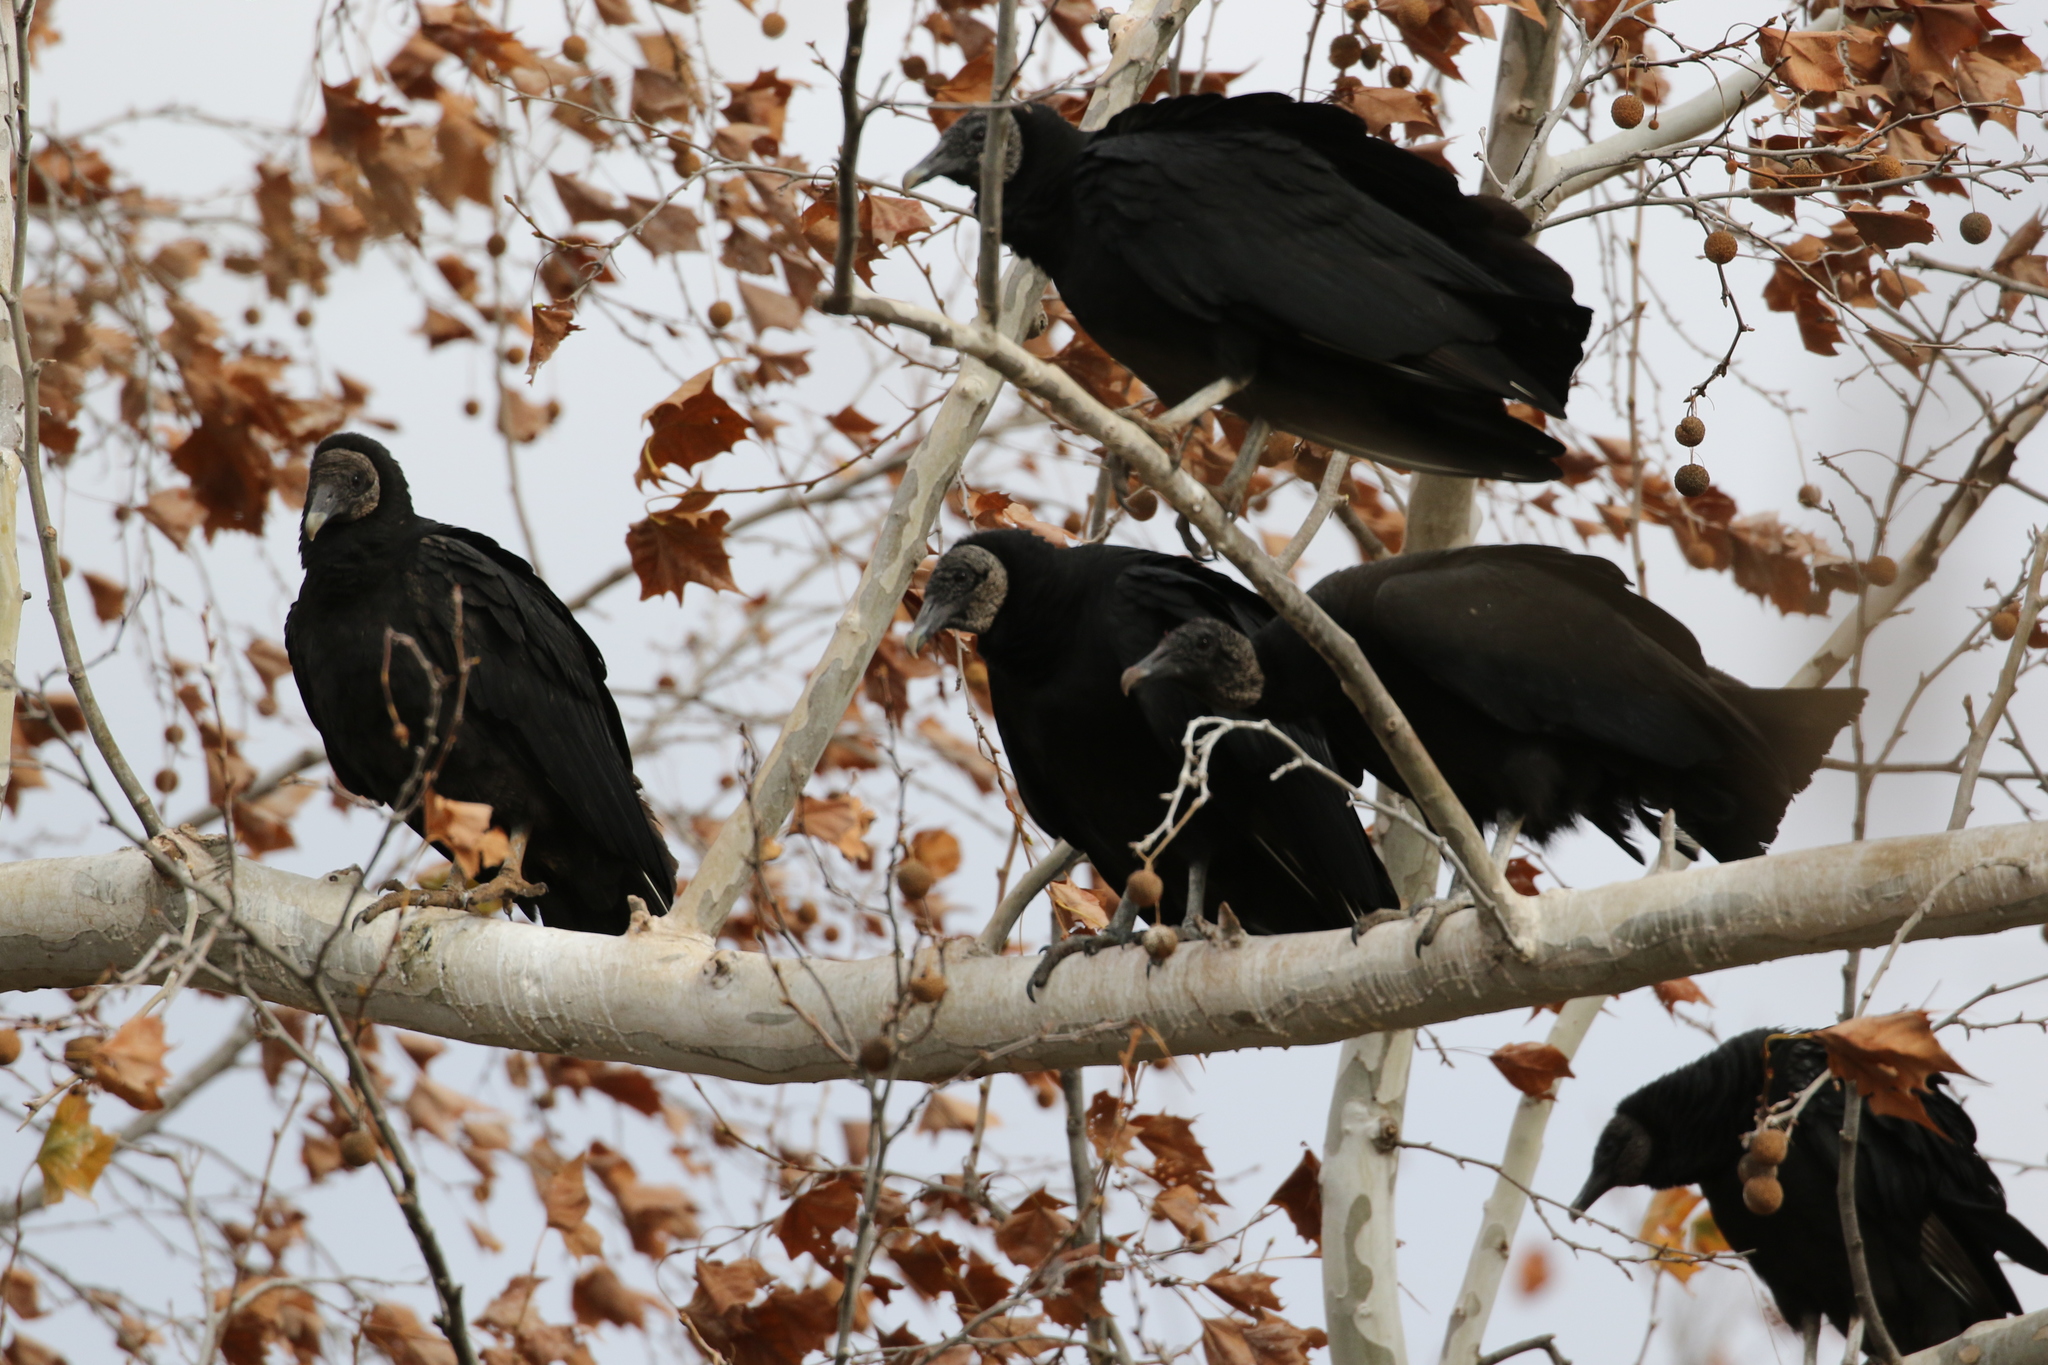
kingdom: Animalia
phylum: Chordata
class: Aves
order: Accipitriformes
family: Cathartidae
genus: Coragyps
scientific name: Coragyps atratus
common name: Black vulture
